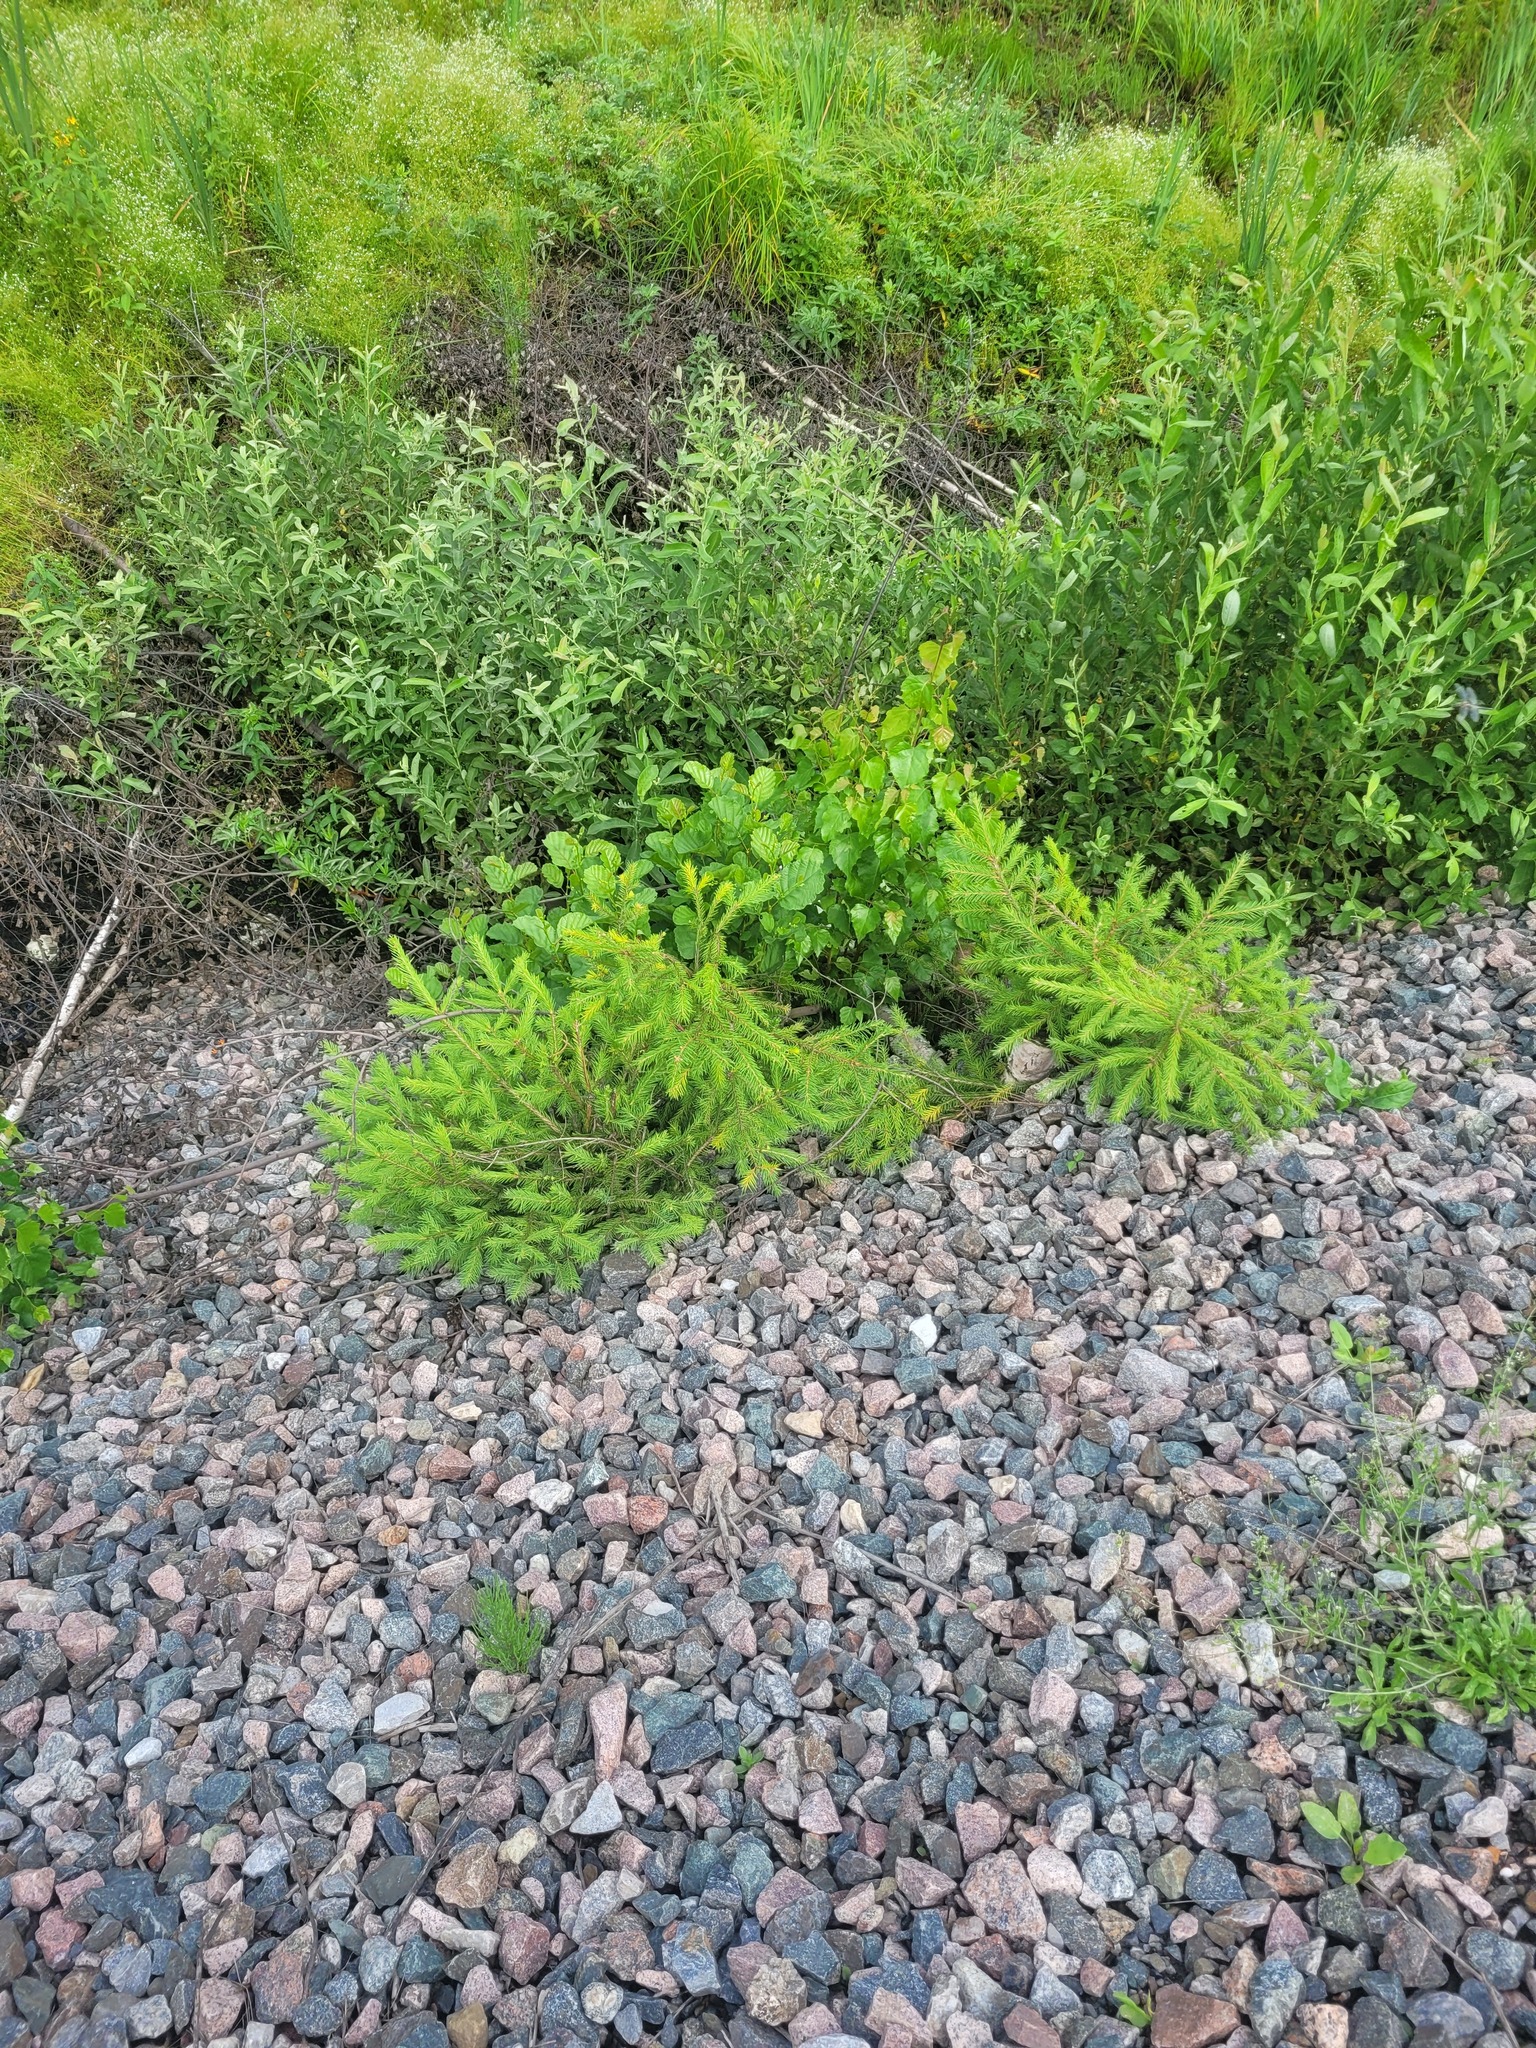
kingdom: Plantae
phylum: Tracheophyta
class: Pinopsida
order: Pinales
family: Pinaceae
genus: Picea
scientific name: Picea abies
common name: Norway spruce
